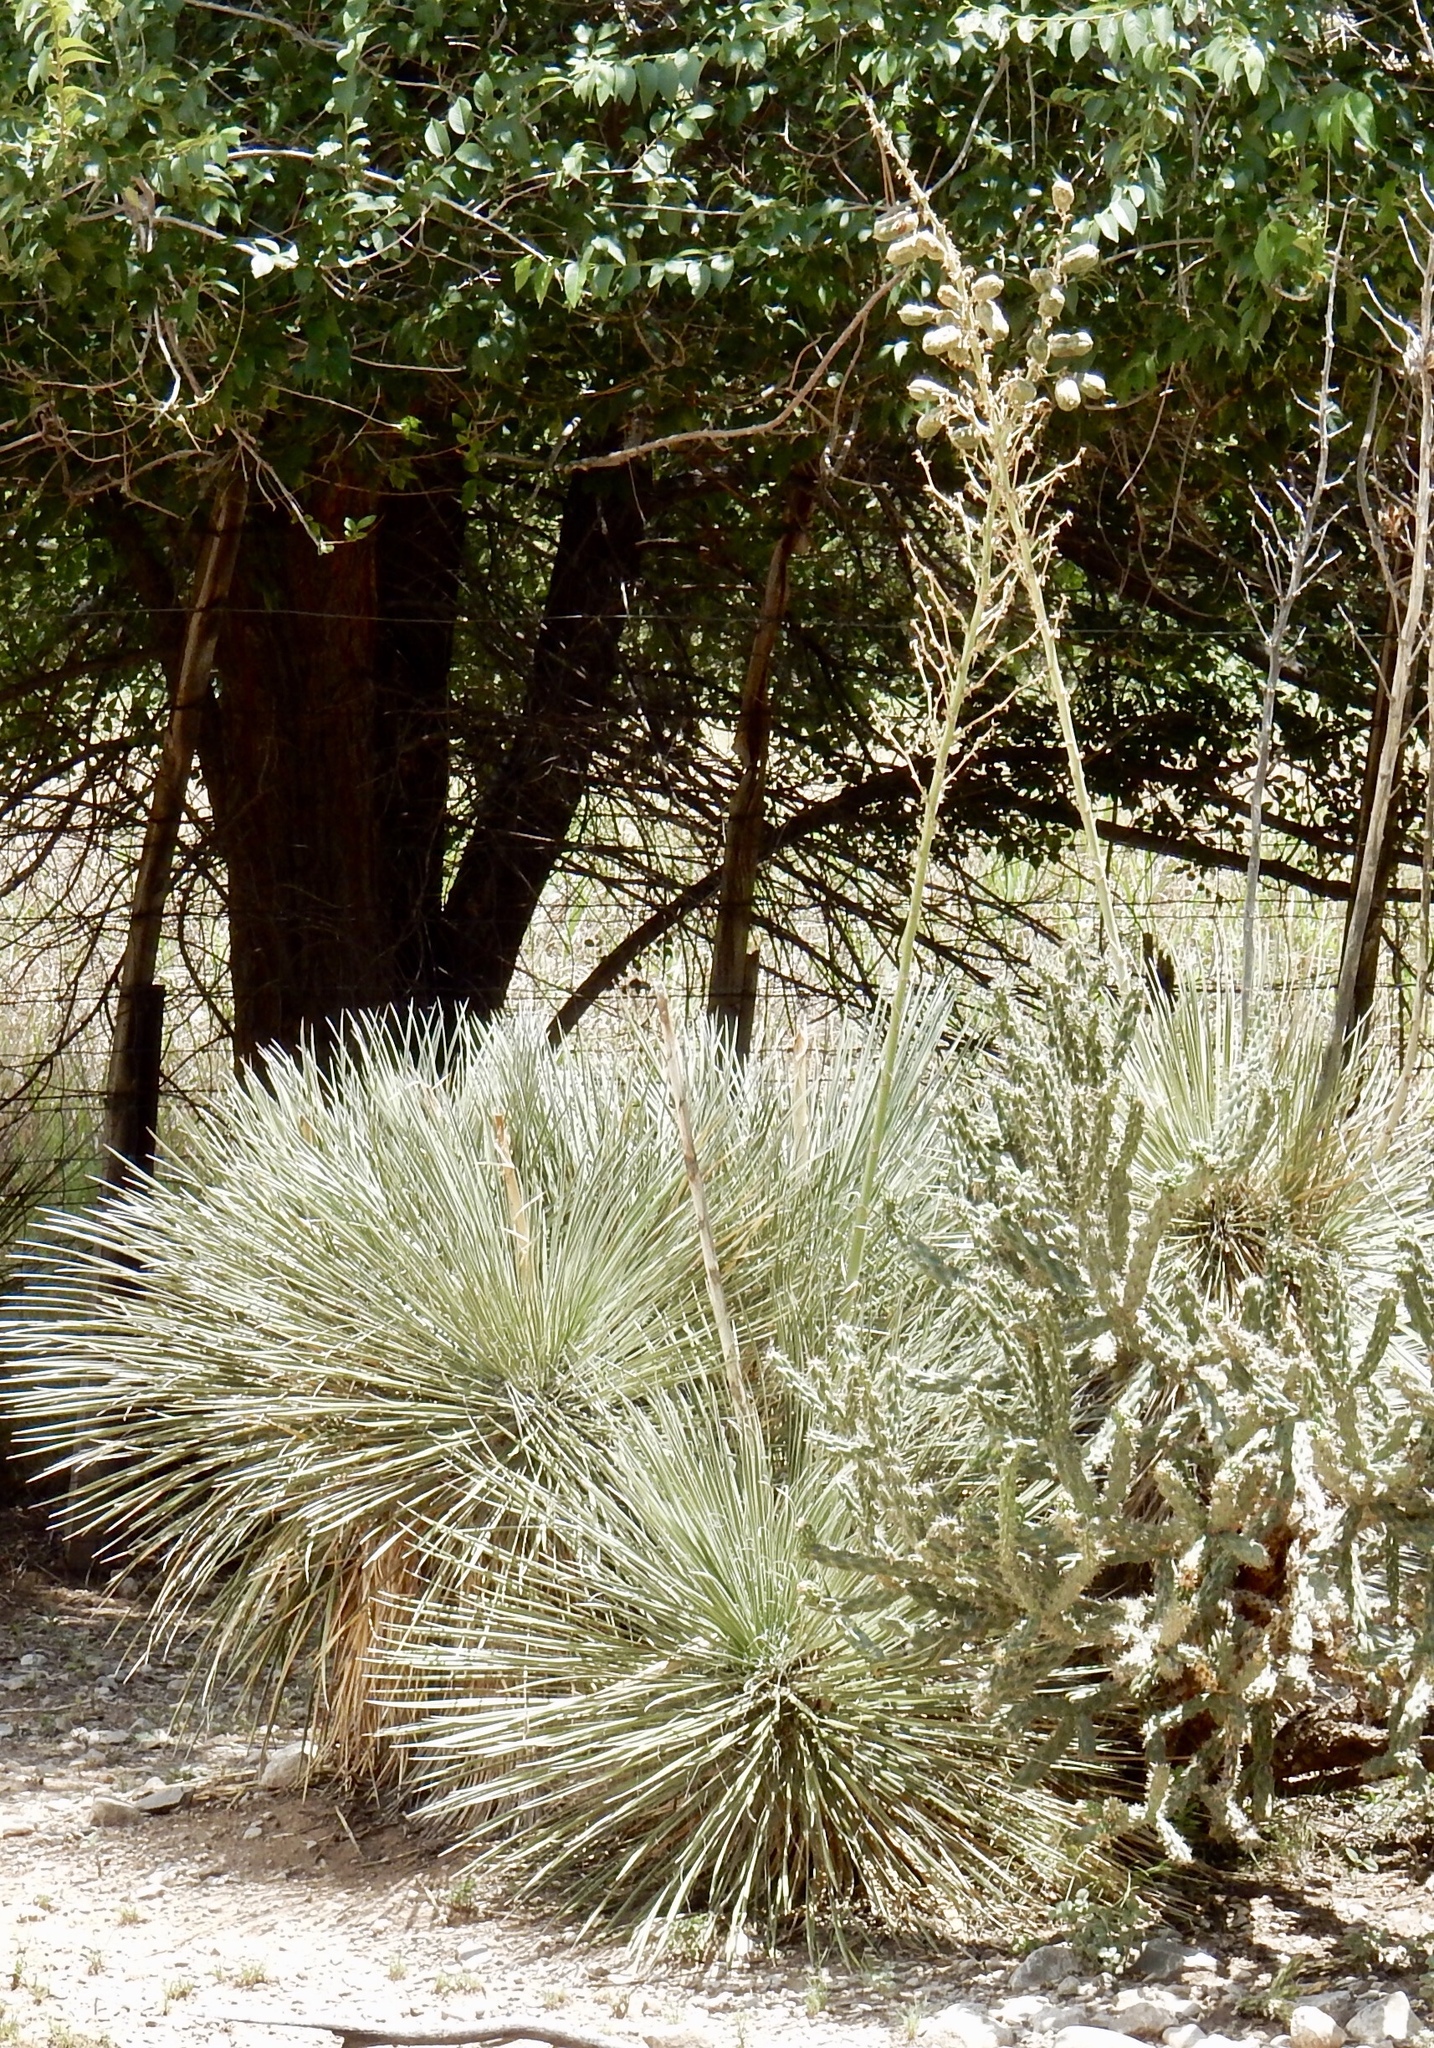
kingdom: Plantae
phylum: Tracheophyta
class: Liliopsida
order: Asparagales
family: Asparagaceae
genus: Yucca
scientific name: Yucca elata
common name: Palmella
